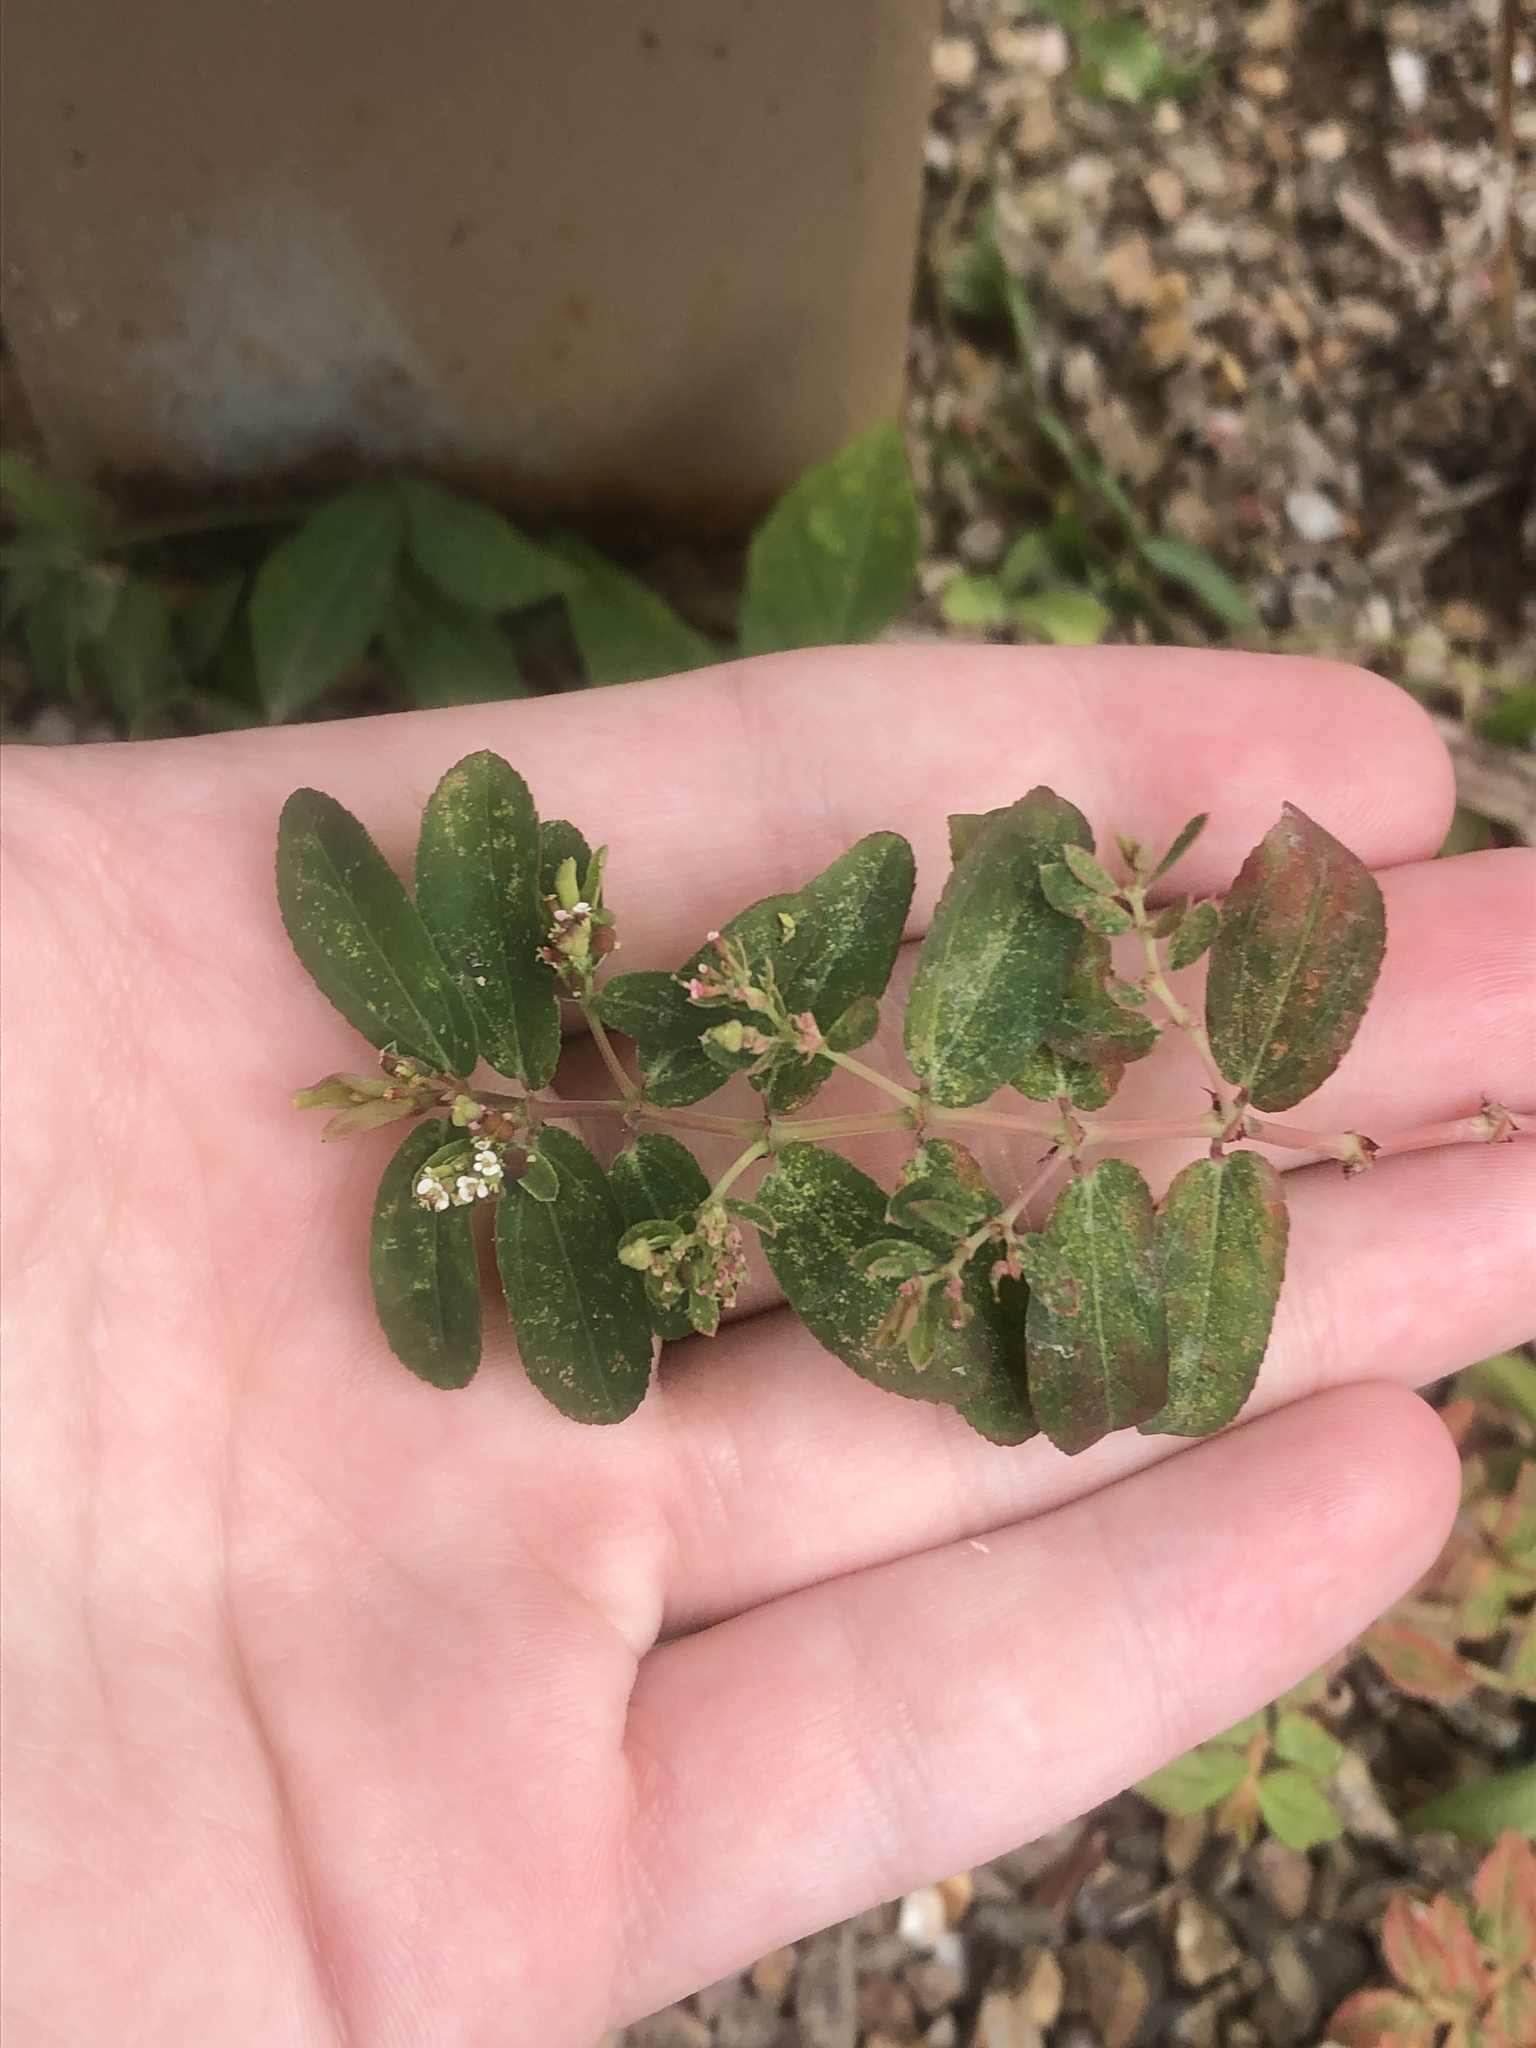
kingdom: Plantae
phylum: Tracheophyta
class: Magnoliopsida
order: Malpighiales
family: Euphorbiaceae
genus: Euphorbia
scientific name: Euphorbia hypericifolia
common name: Graceful sandmat
